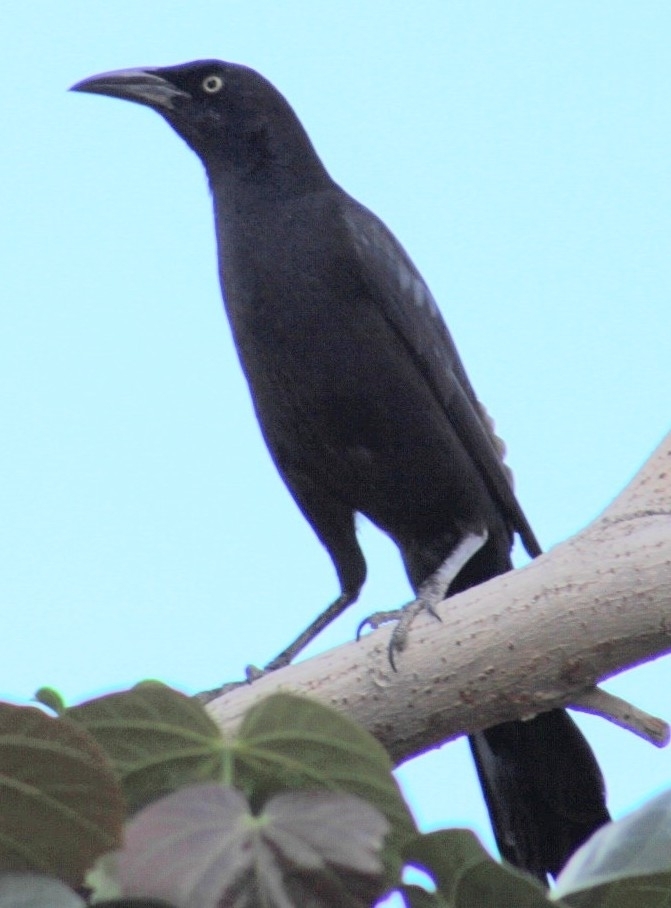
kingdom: Animalia
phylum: Chordata
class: Aves
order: Passeriformes
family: Icteridae
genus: Quiscalus
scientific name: Quiscalus mexicanus
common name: Great-tailed grackle
